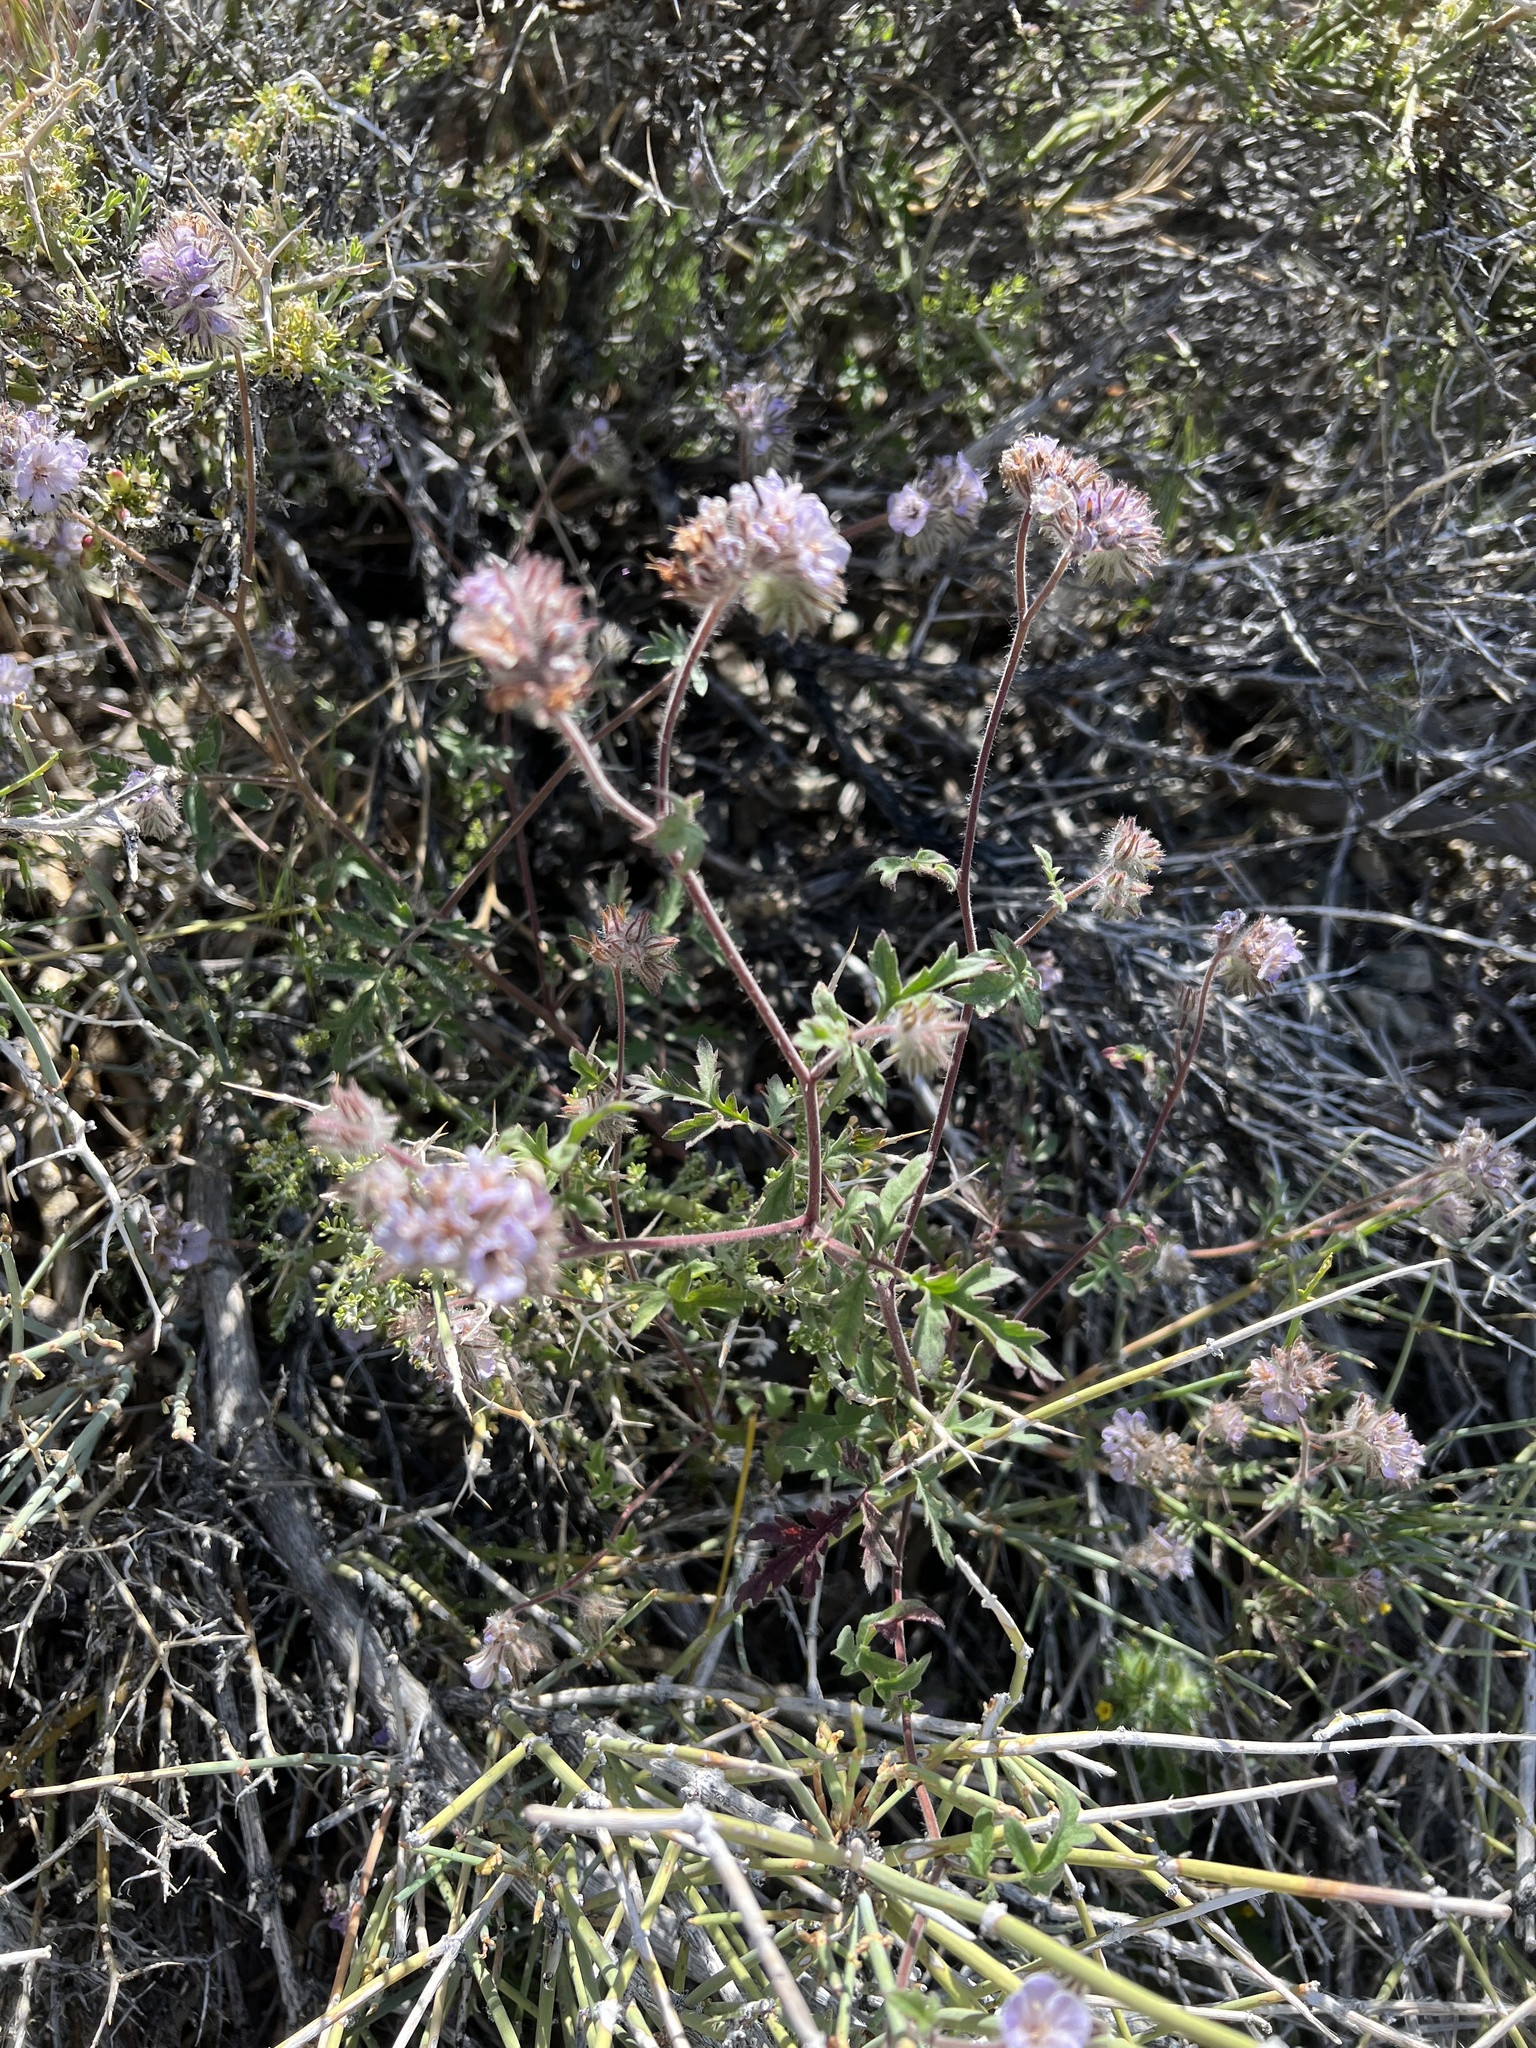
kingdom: Plantae
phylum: Tracheophyta
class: Magnoliopsida
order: Boraginales
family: Hydrophyllaceae
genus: Phacelia
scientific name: Phacelia vallis-mortae
